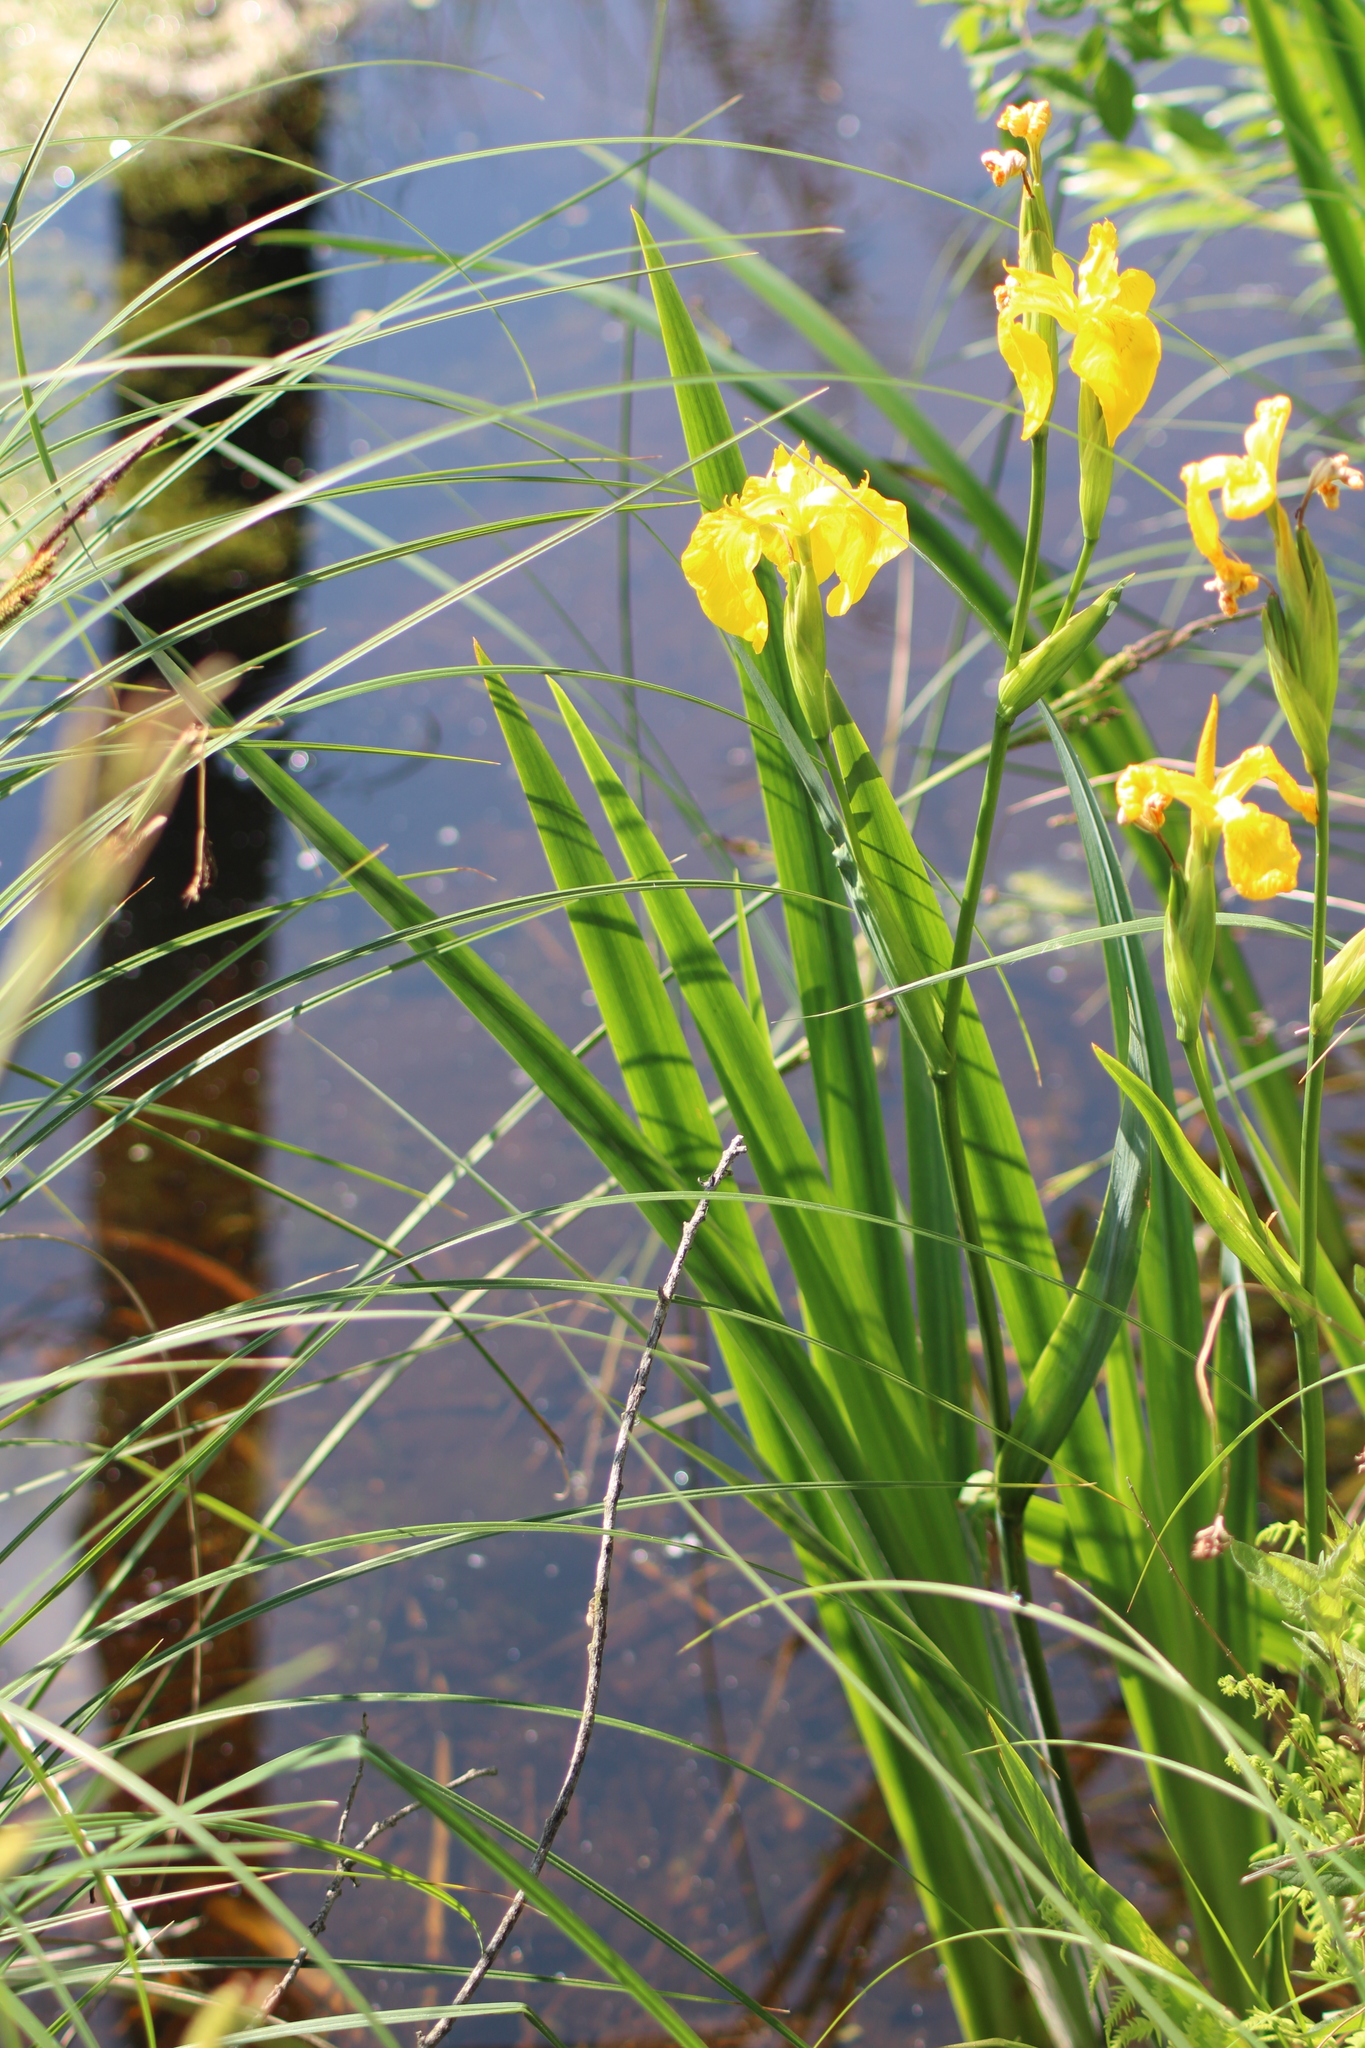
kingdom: Plantae
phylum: Tracheophyta
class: Liliopsida
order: Asparagales
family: Iridaceae
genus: Iris
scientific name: Iris pseudacorus
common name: Yellow flag
